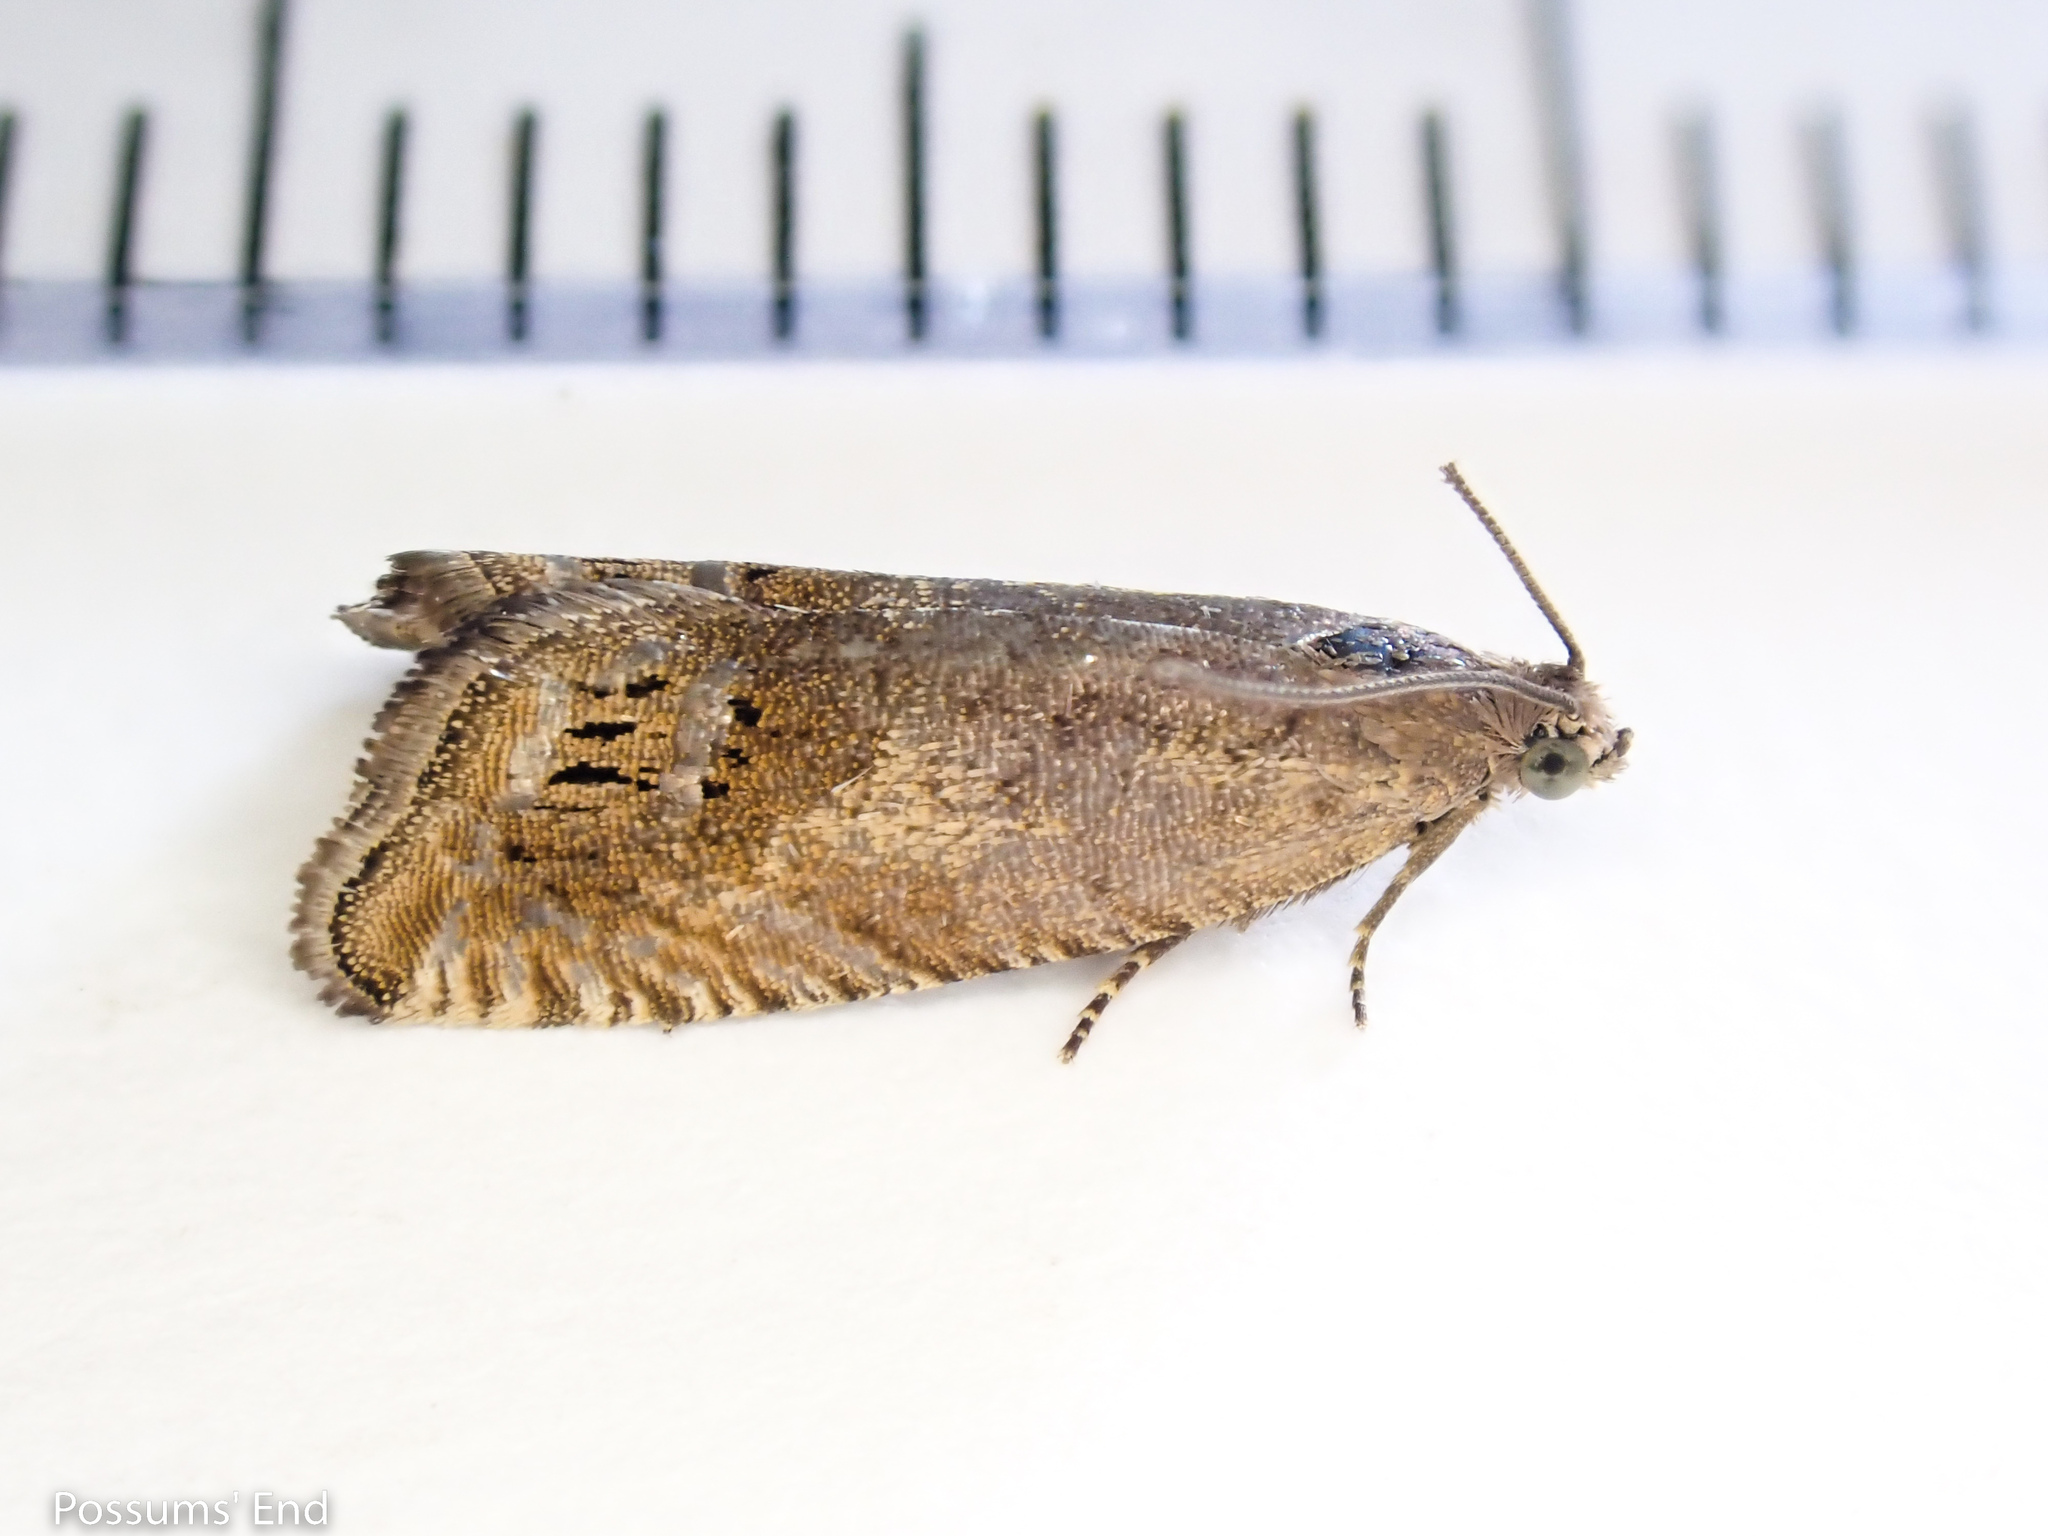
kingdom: Animalia
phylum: Arthropoda
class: Insecta
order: Lepidoptera
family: Tortricidae
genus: Cydia
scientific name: Cydia succedana
